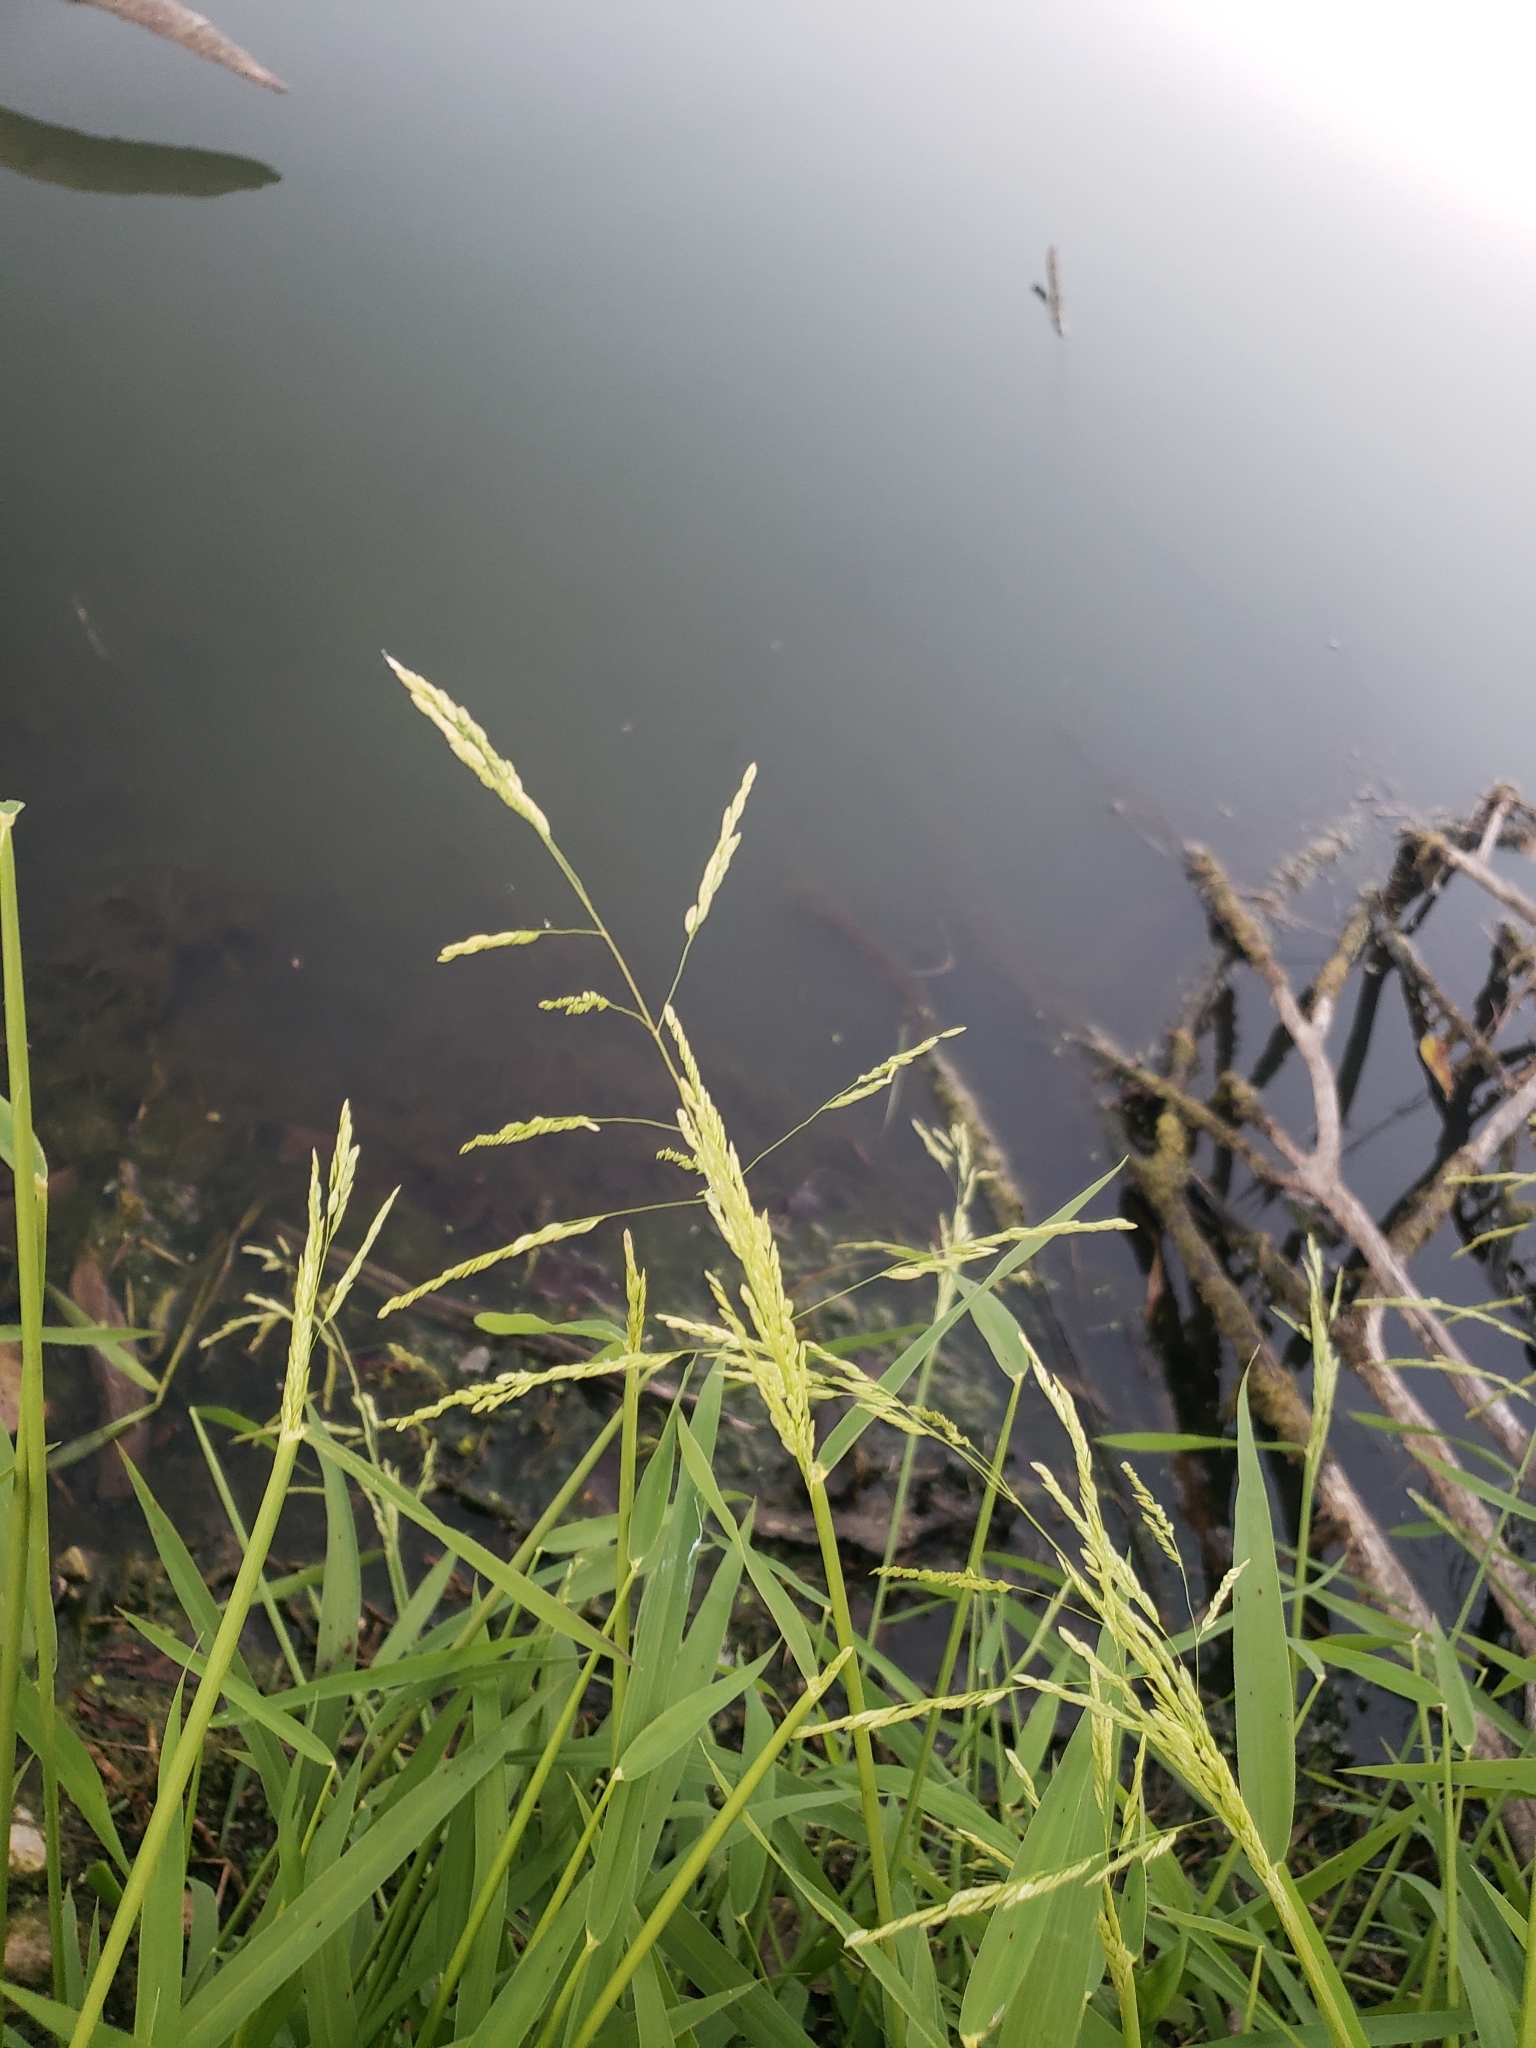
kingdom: Plantae
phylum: Tracheophyta
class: Liliopsida
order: Poales
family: Poaceae
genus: Leersia
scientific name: Leersia oryzoides
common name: Cut-grass
